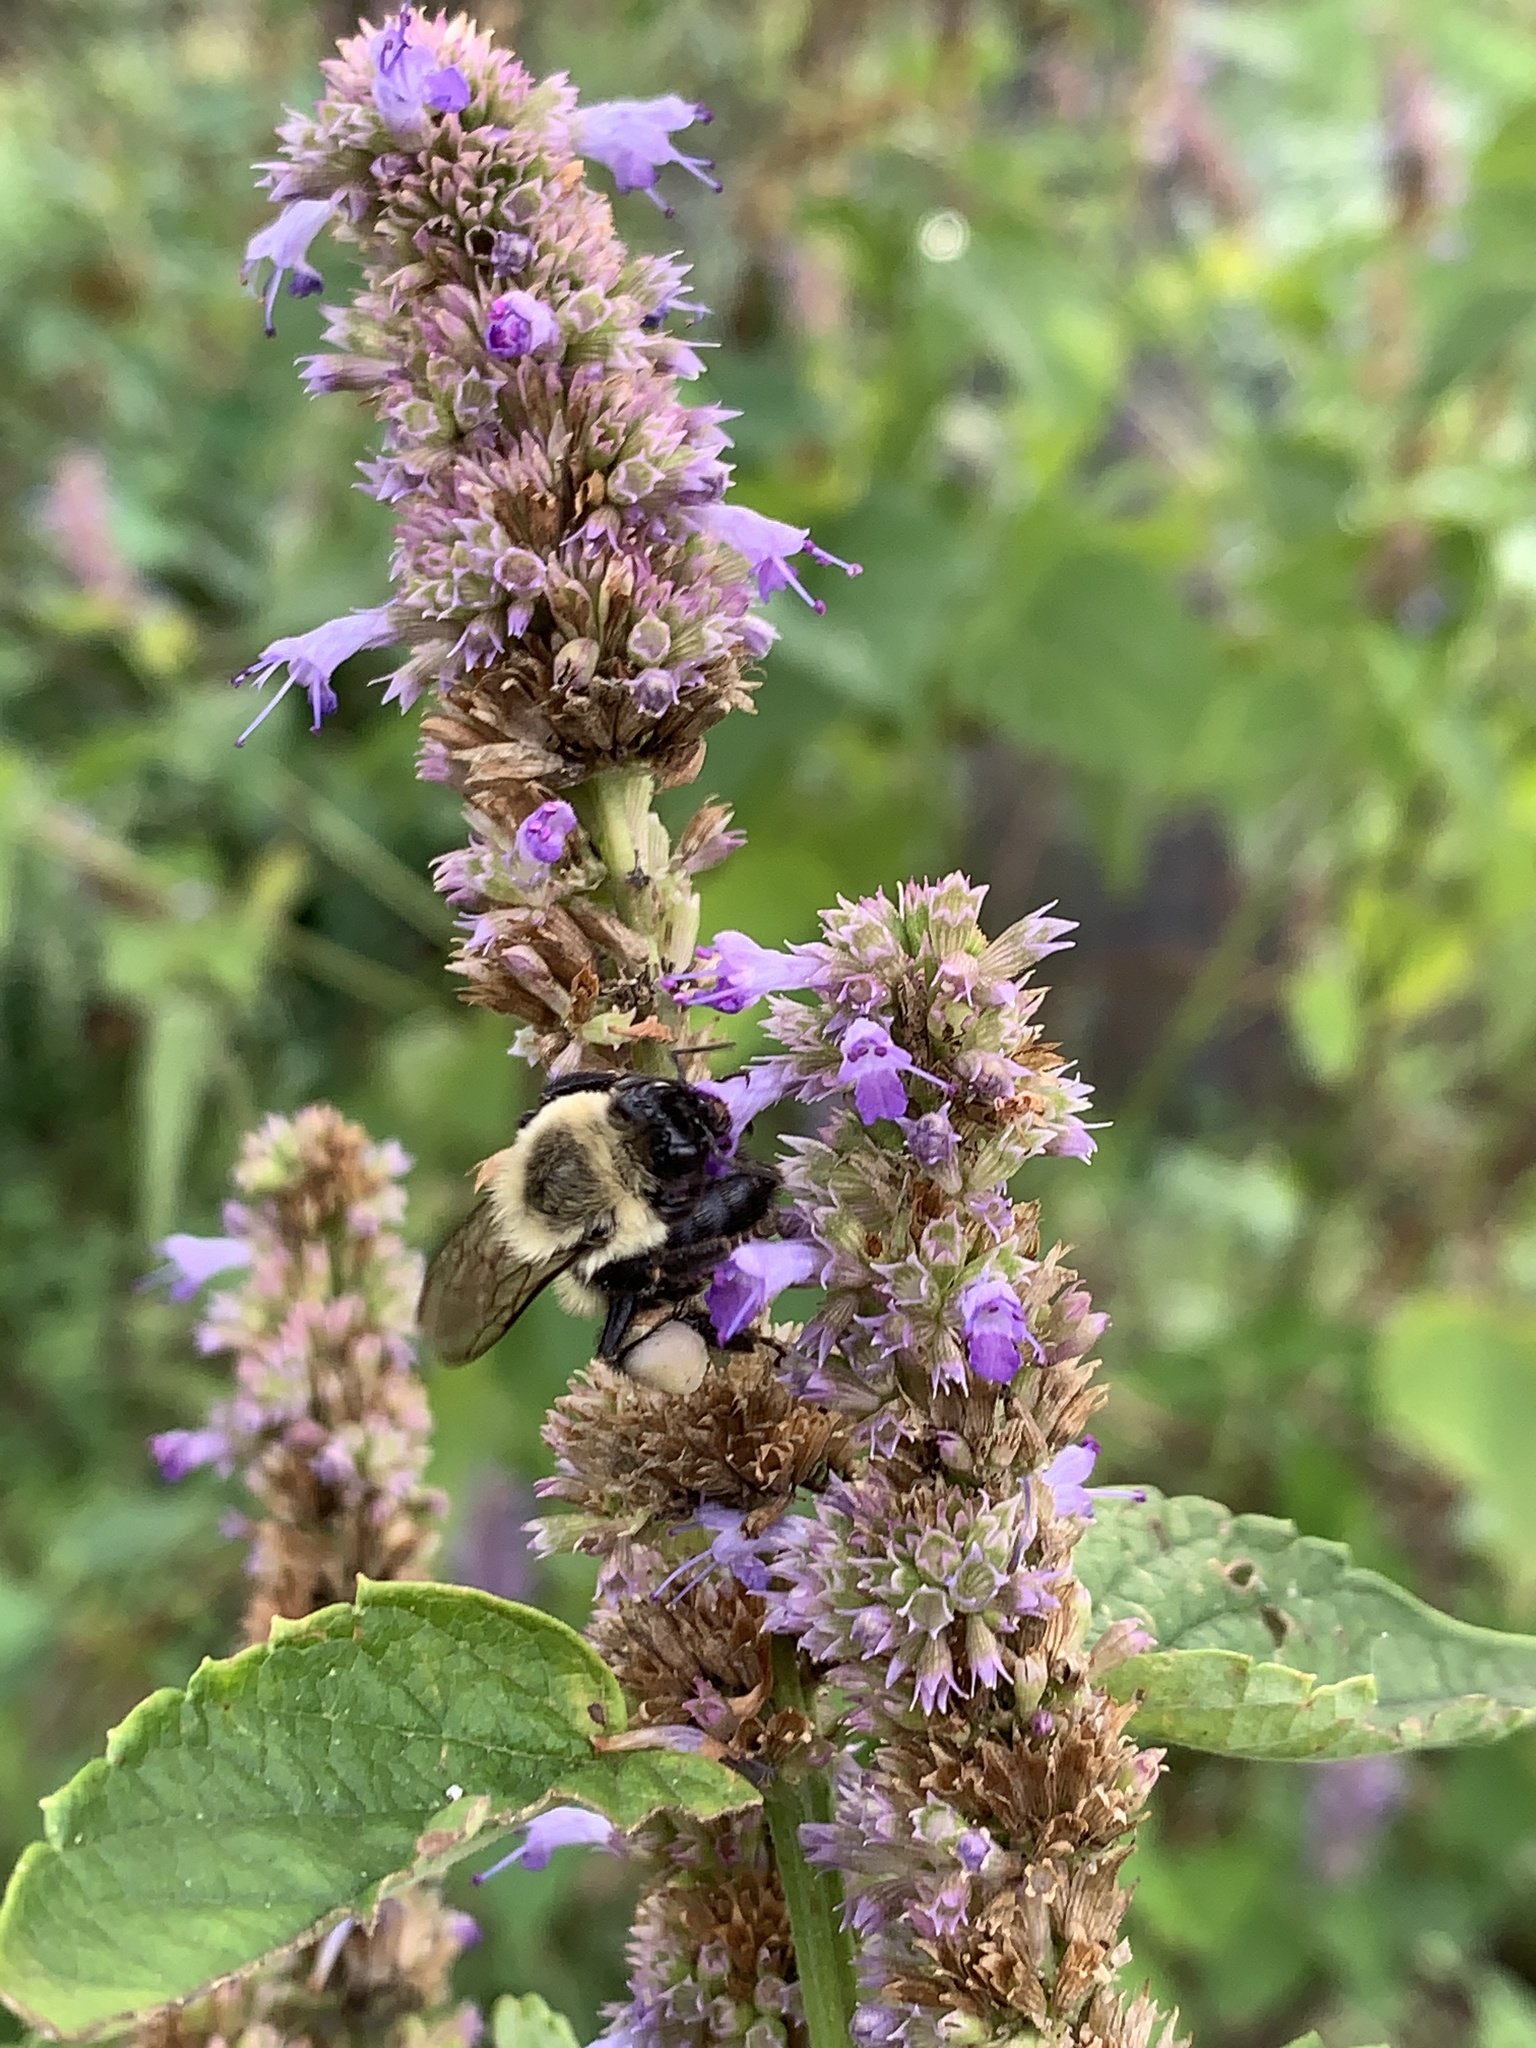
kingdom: Animalia
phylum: Arthropoda
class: Insecta
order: Hymenoptera
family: Apidae
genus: Bombus
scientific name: Bombus impatiens
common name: Common eastern bumble bee
